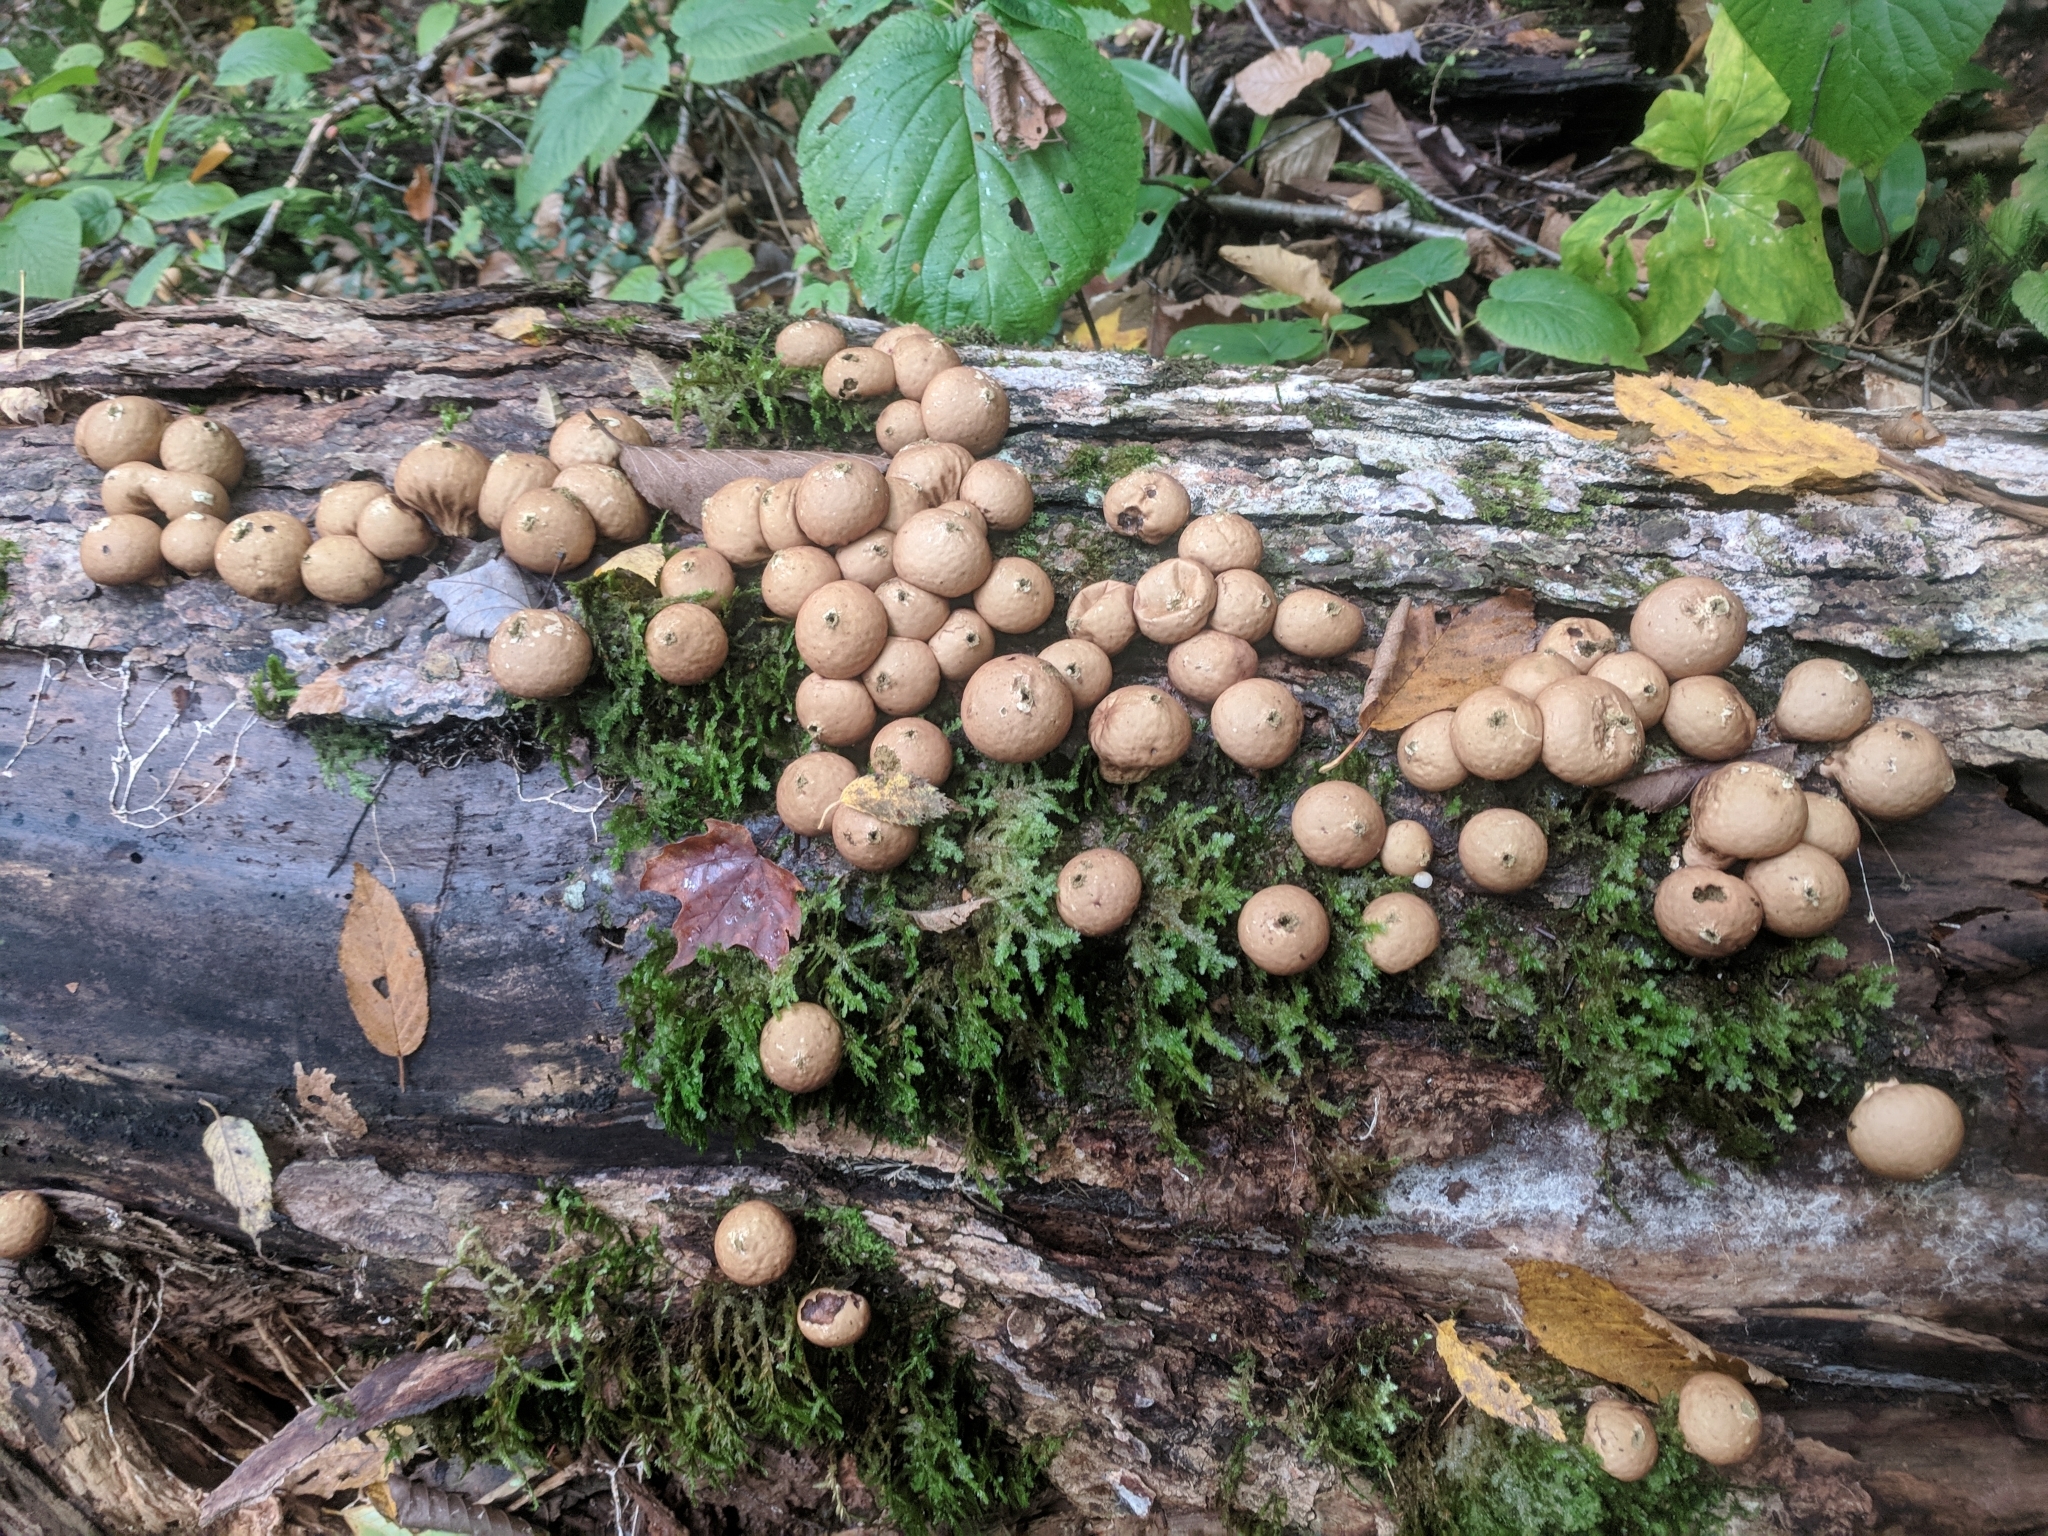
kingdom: Fungi
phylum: Basidiomycota
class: Agaricomycetes
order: Agaricales
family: Lycoperdaceae
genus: Apioperdon
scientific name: Apioperdon pyriforme
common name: Pear-shaped puffball
